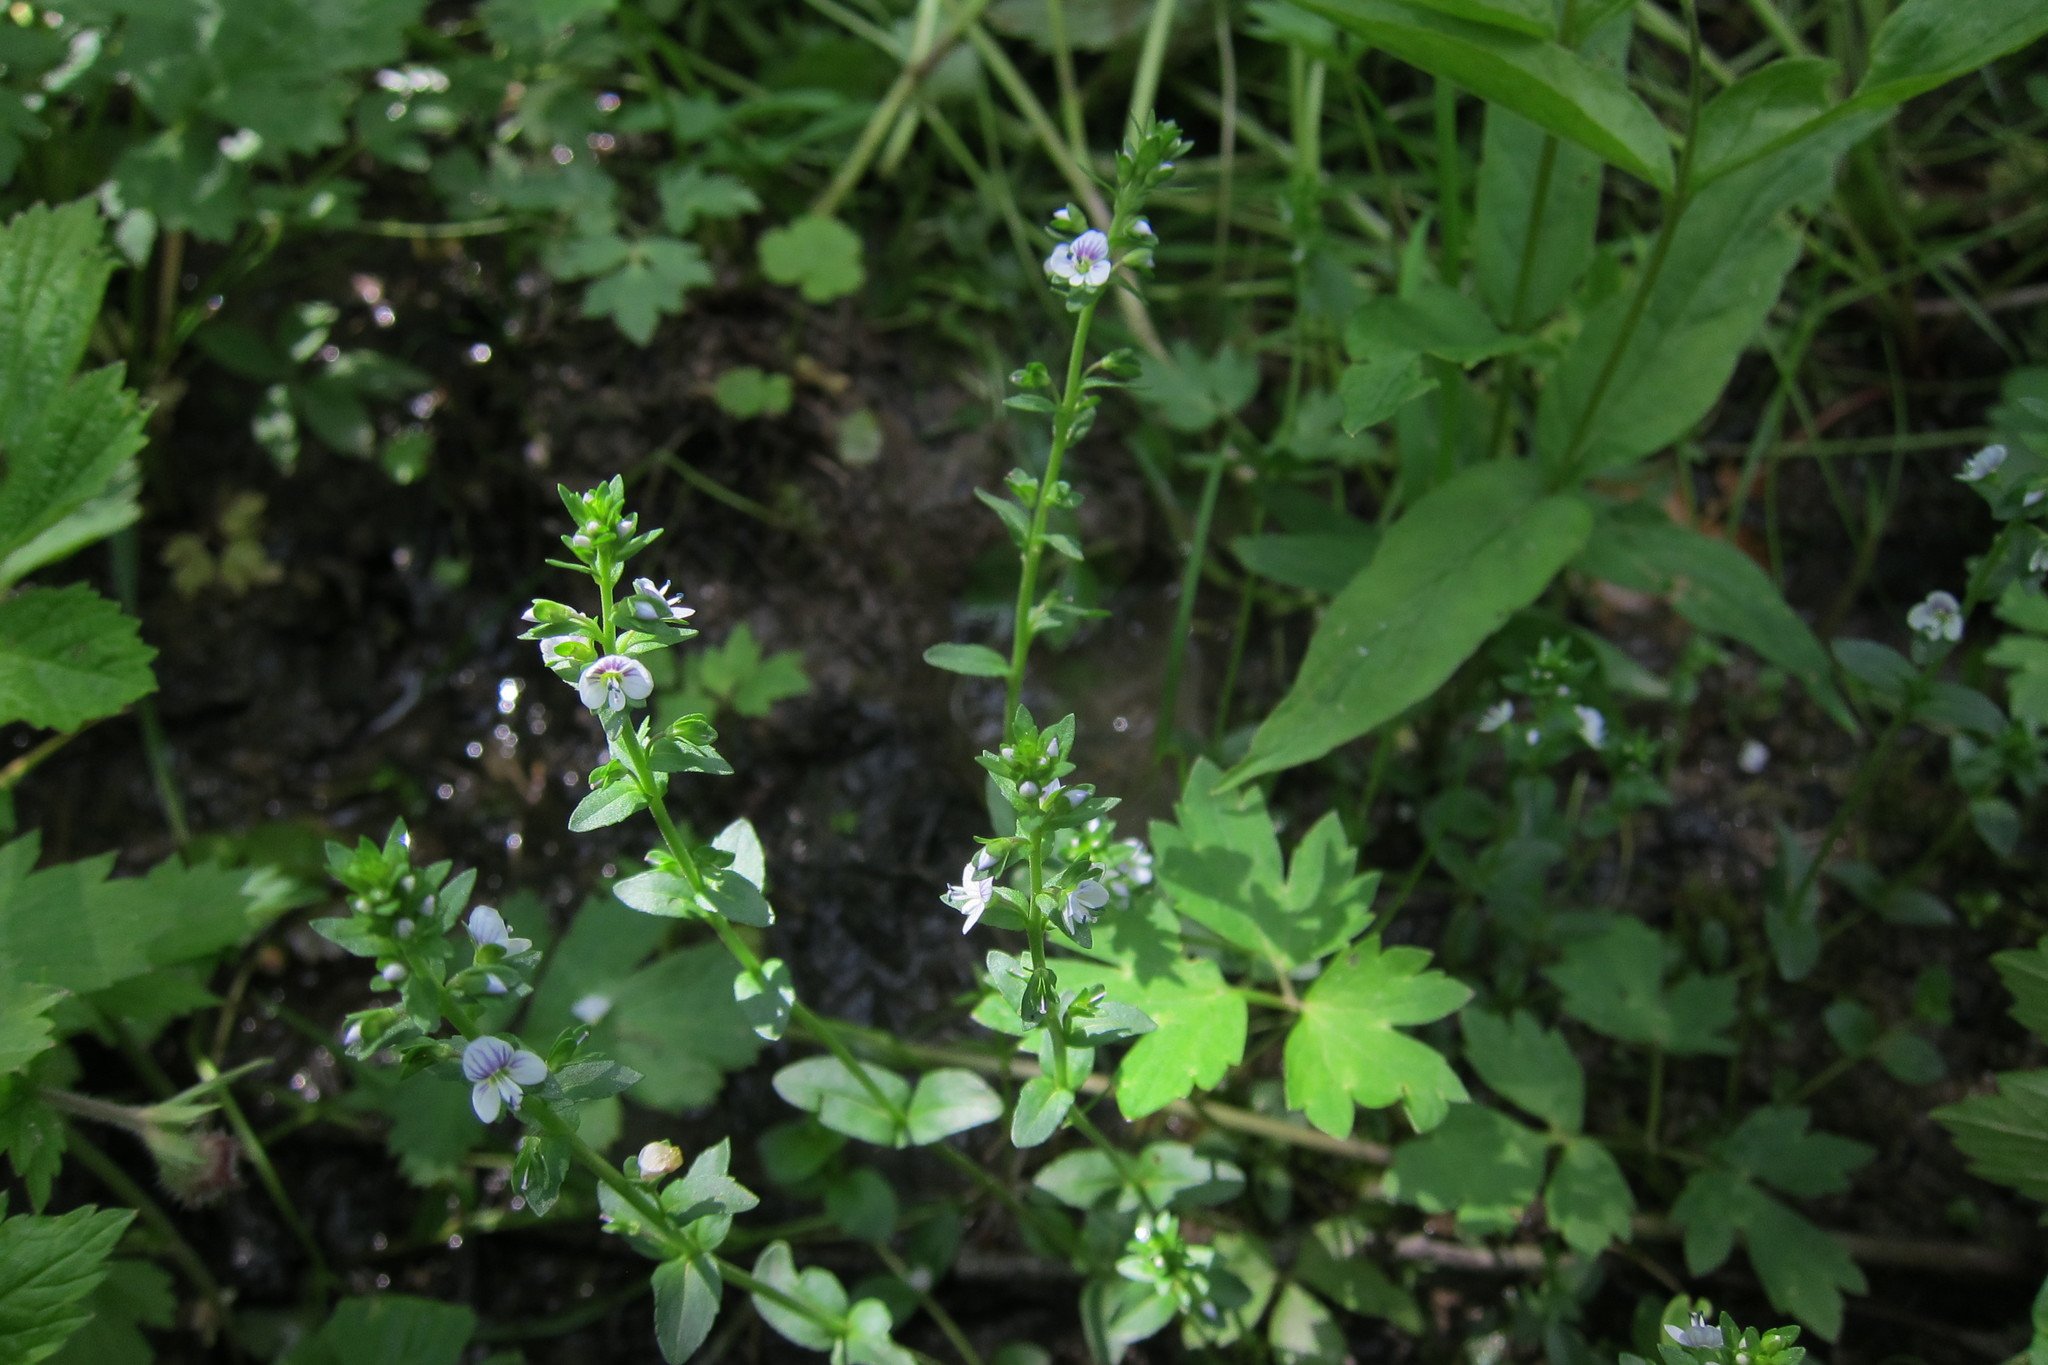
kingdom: Plantae
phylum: Tracheophyta
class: Magnoliopsida
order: Lamiales
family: Plantaginaceae
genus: Veronica
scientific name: Veronica serpyllifolia
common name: Thyme-leaved speedwell
